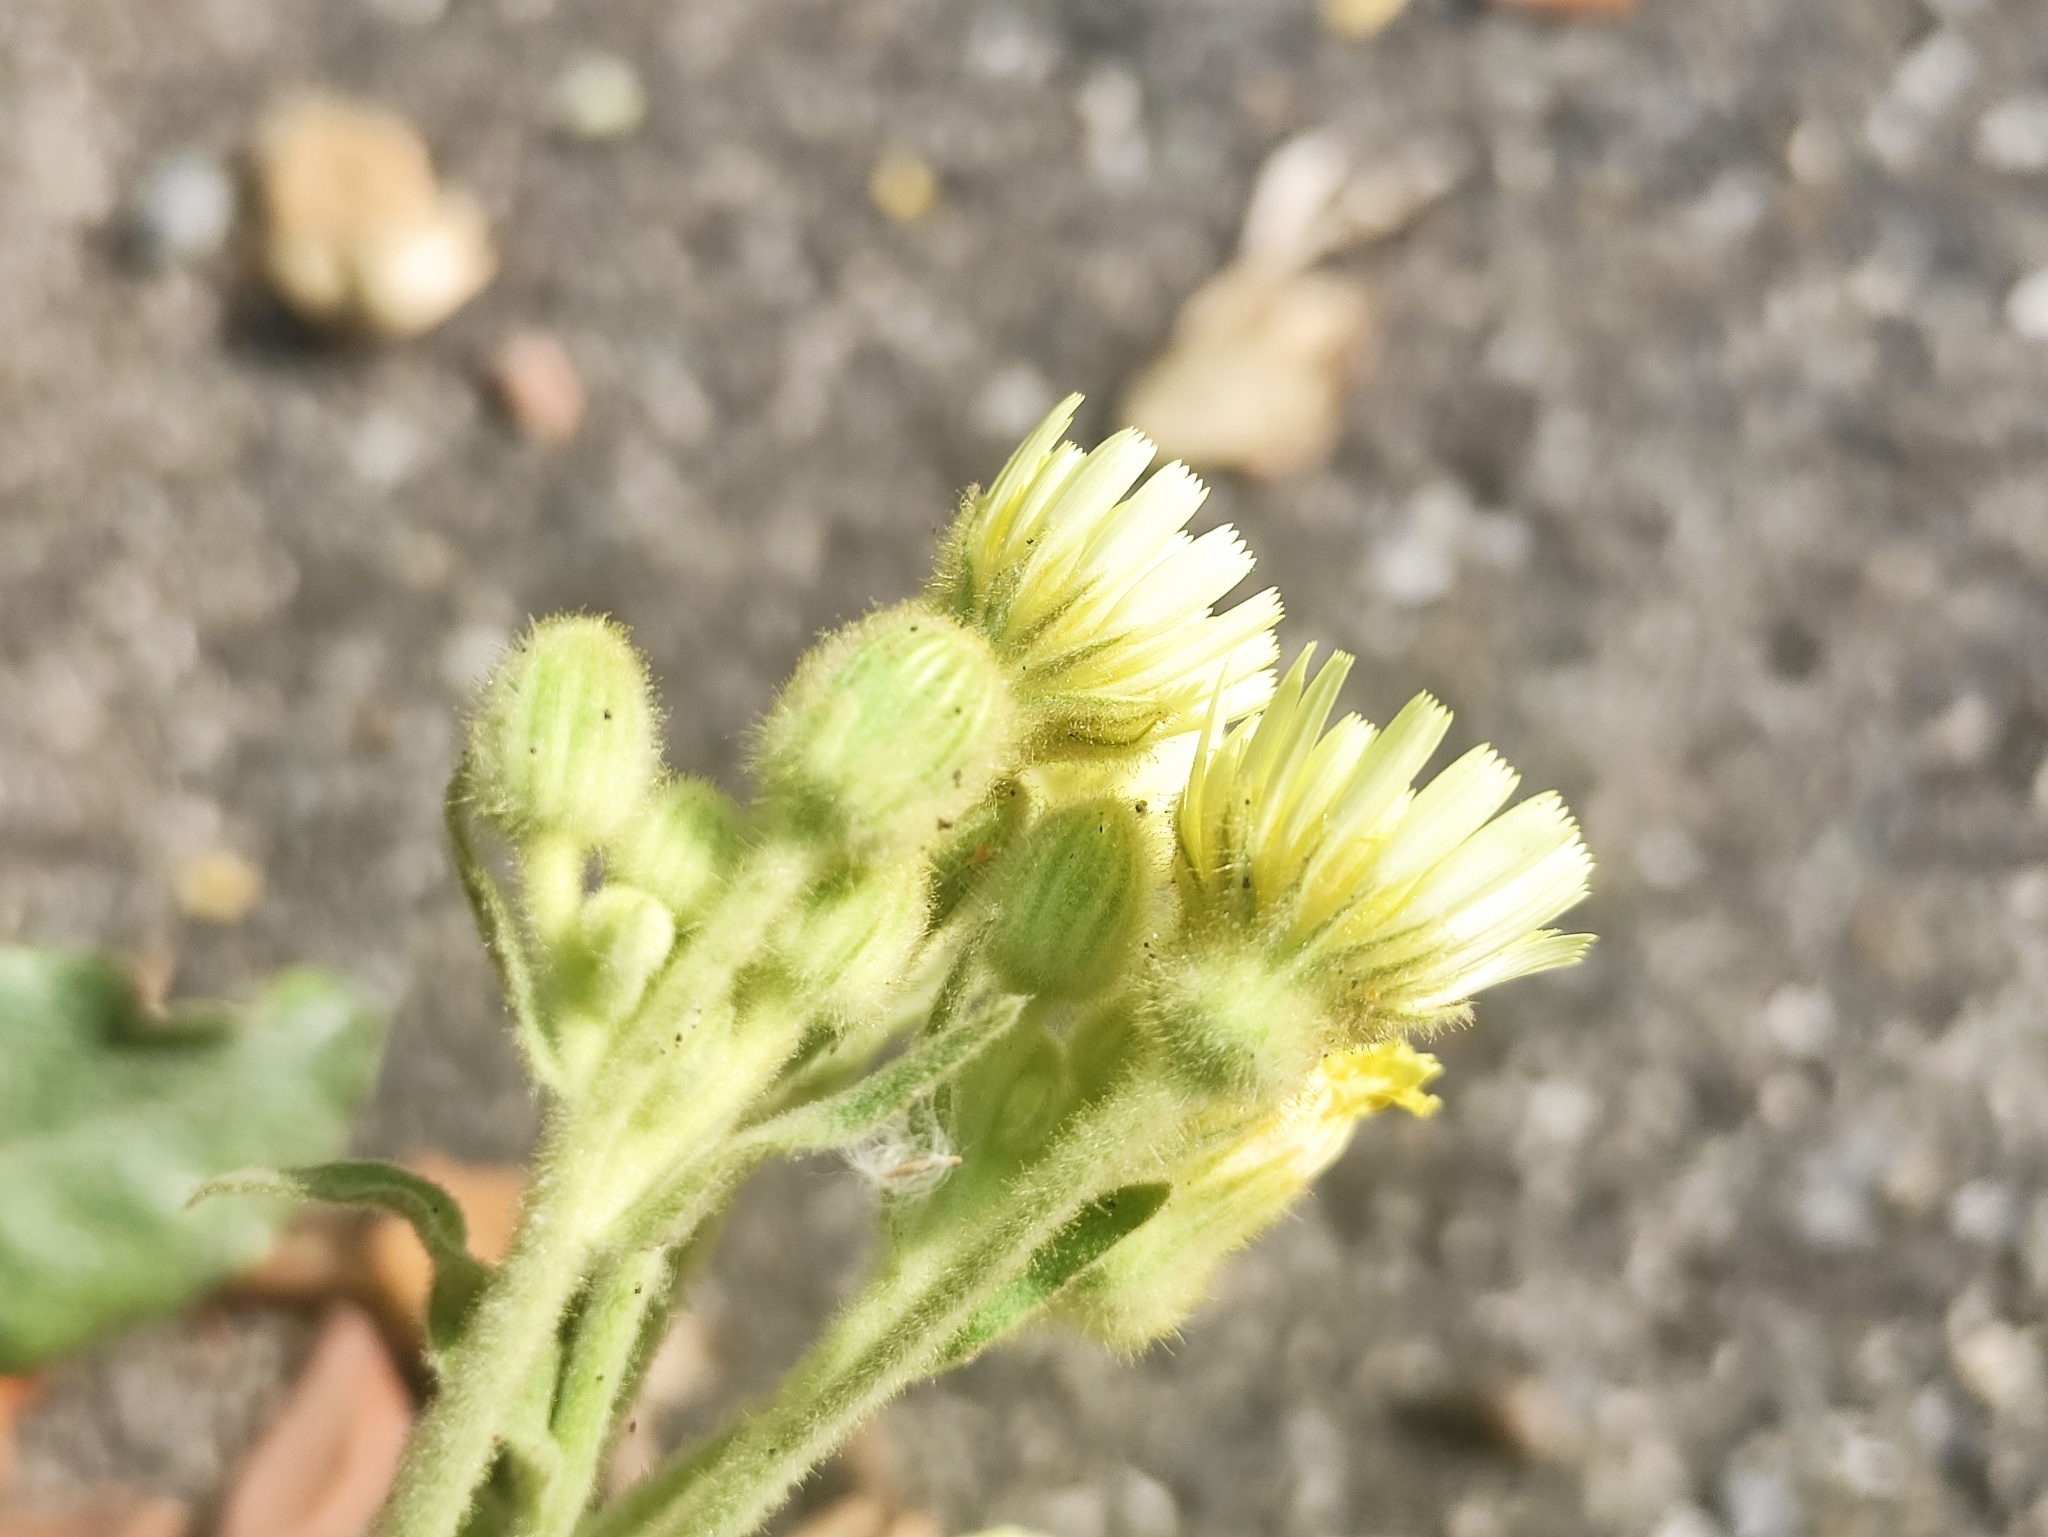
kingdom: Plantae
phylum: Tracheophyta
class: Magnoliopsida
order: Asterales
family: Asteraceae
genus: Andryala
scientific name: Andryala integrifolia
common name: Common andryala
